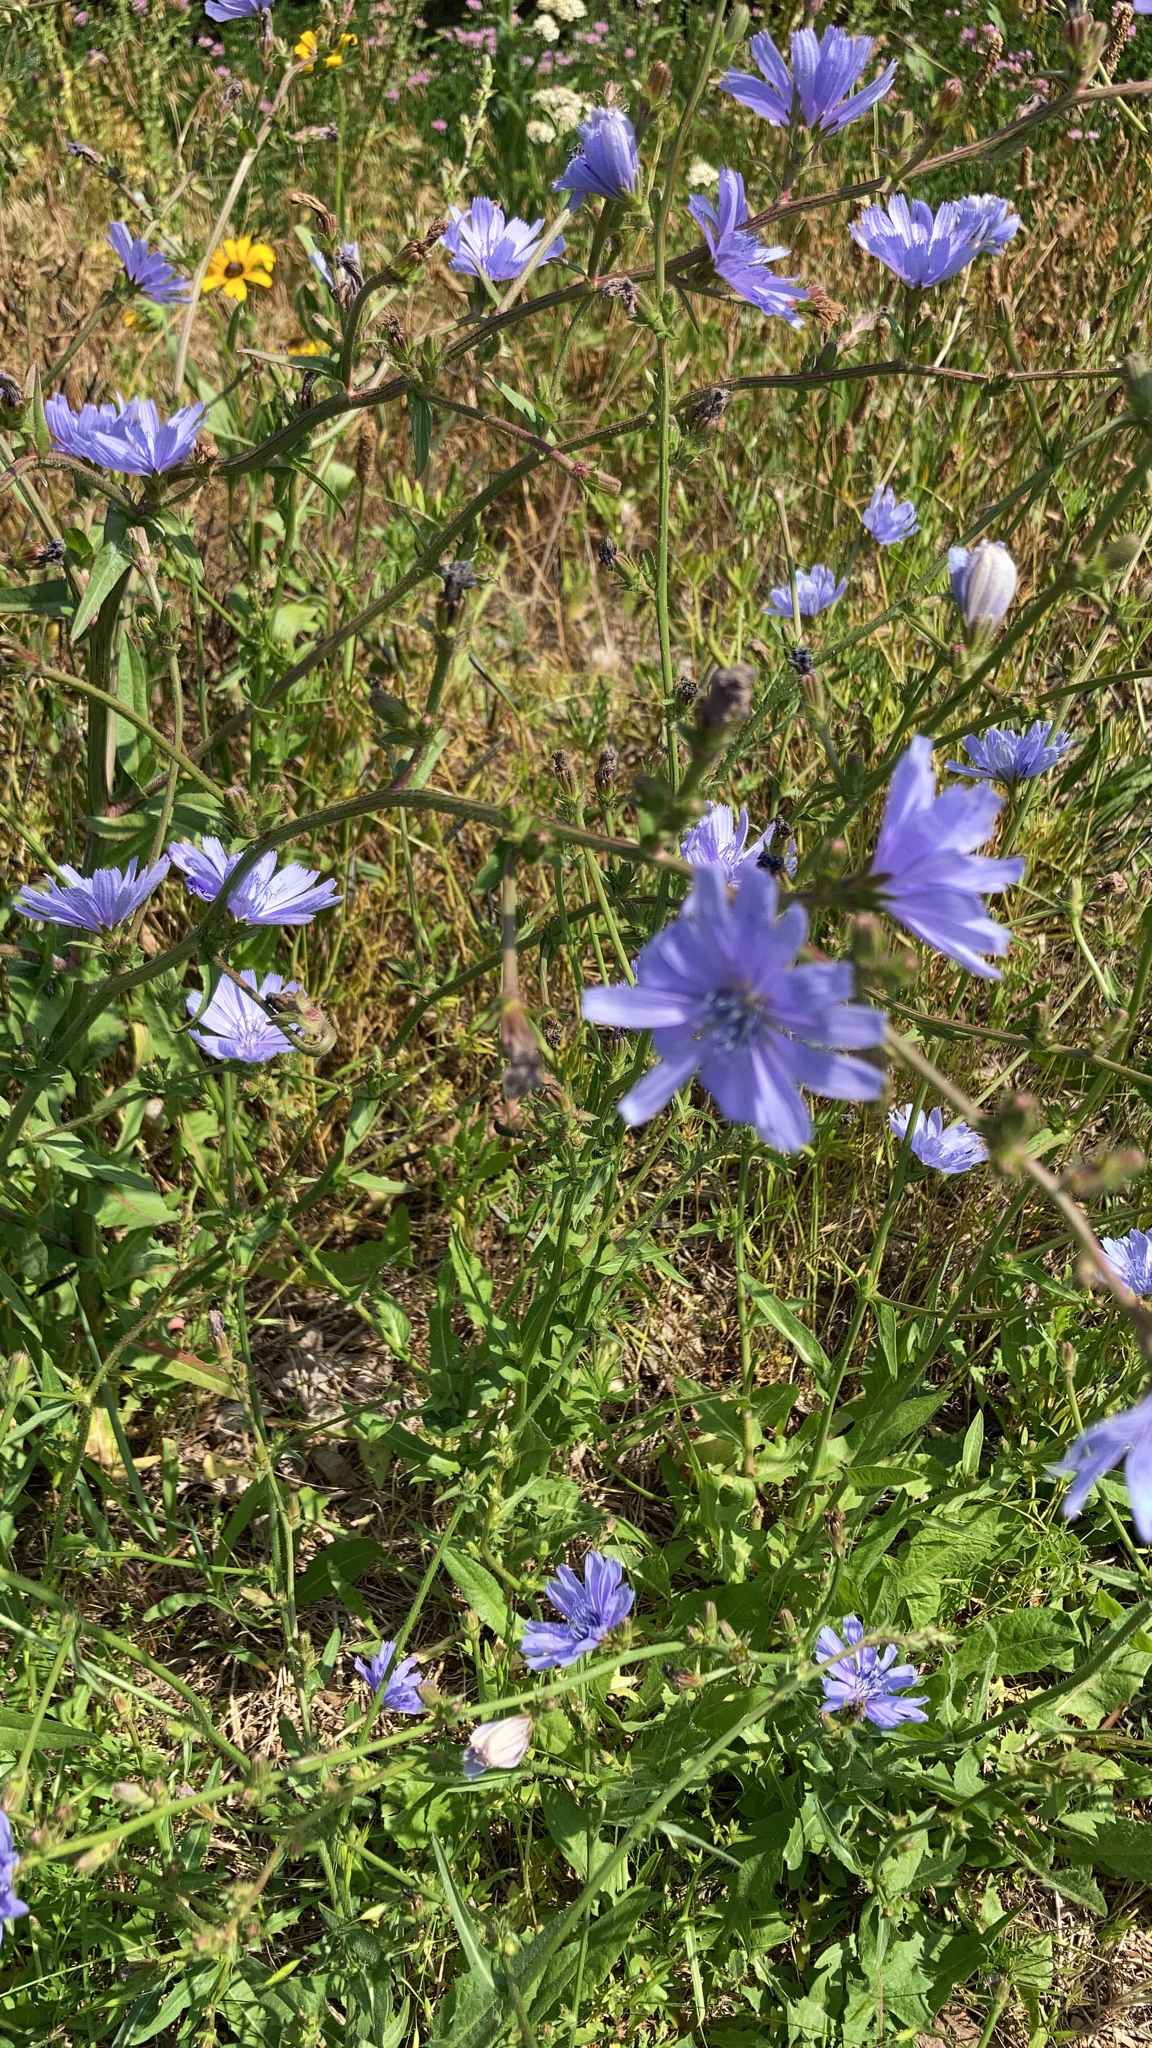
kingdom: Plantae
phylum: Tracheophyta
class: Magnoliopsida
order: Asterales
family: Asteraceae
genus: Cichorium
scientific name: Cichorium intybus
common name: Chicory
